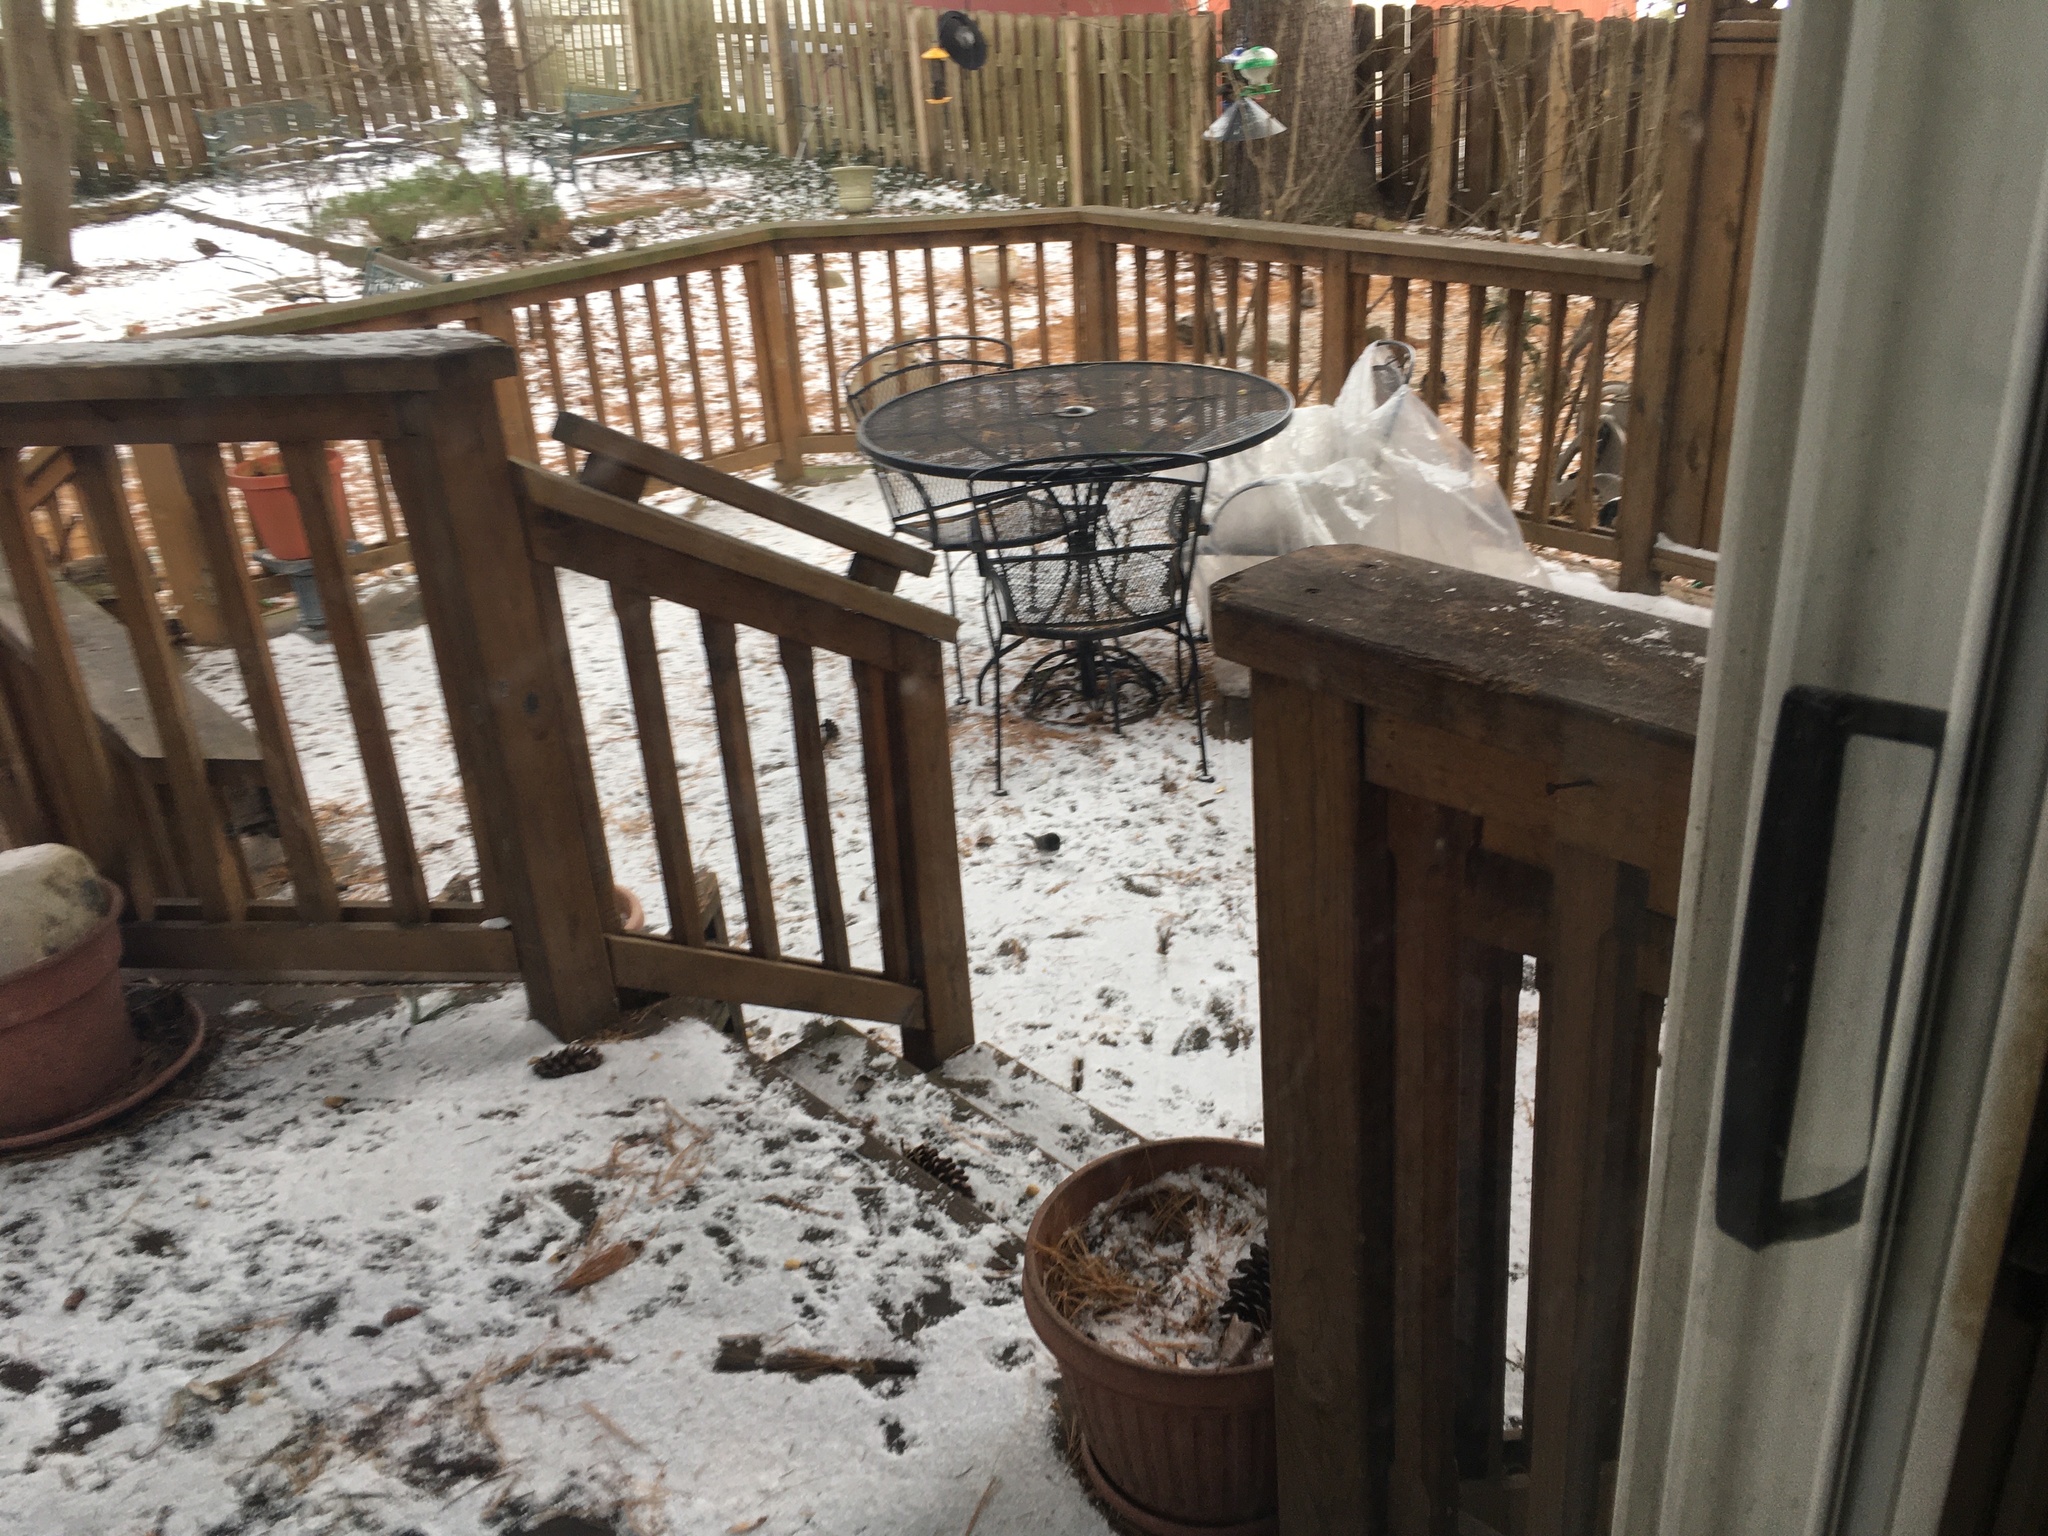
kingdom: Animalia
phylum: Chordata
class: Aves
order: Passeriformes
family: Passerellidae
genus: Junco
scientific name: Junco hyemalis
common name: Dark-eyed junco
